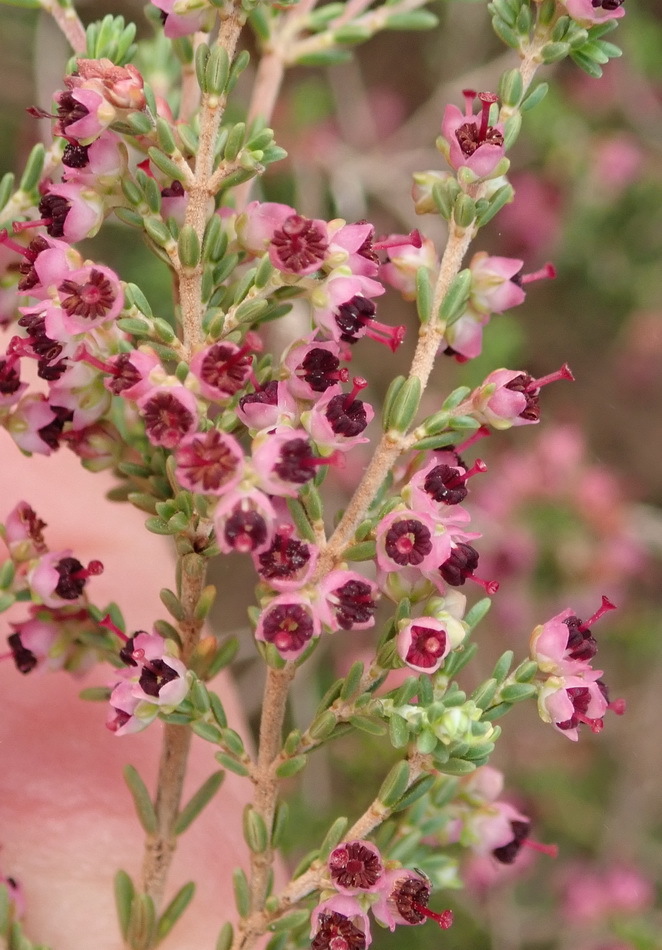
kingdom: Plantae
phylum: Tracheophyta
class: Magnoliopsida
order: Ericales
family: Ericaceae
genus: Erica
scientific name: Erica peltata
